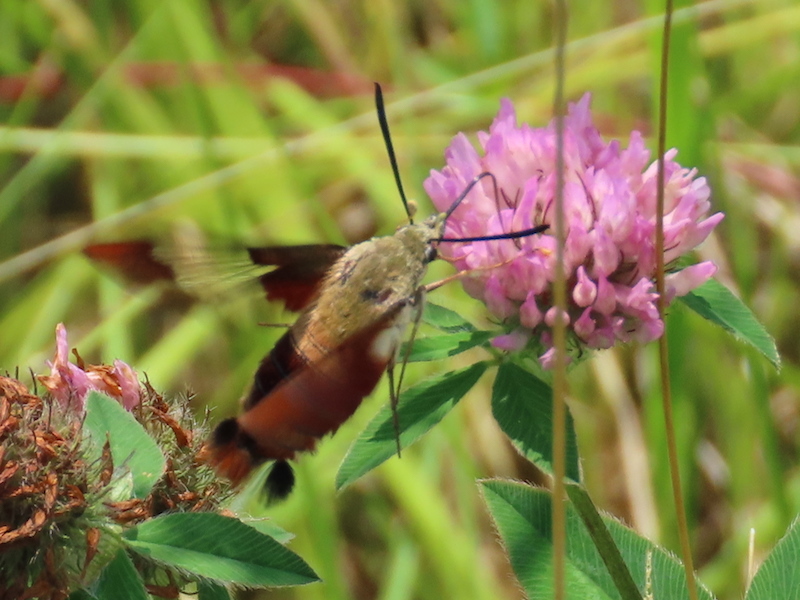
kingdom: Animalia
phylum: Arthropoda
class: Insecta
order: Lepidoptera
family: Sphingidae
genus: Hemaris
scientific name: Hemaris thysbe
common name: Common clear-wing
